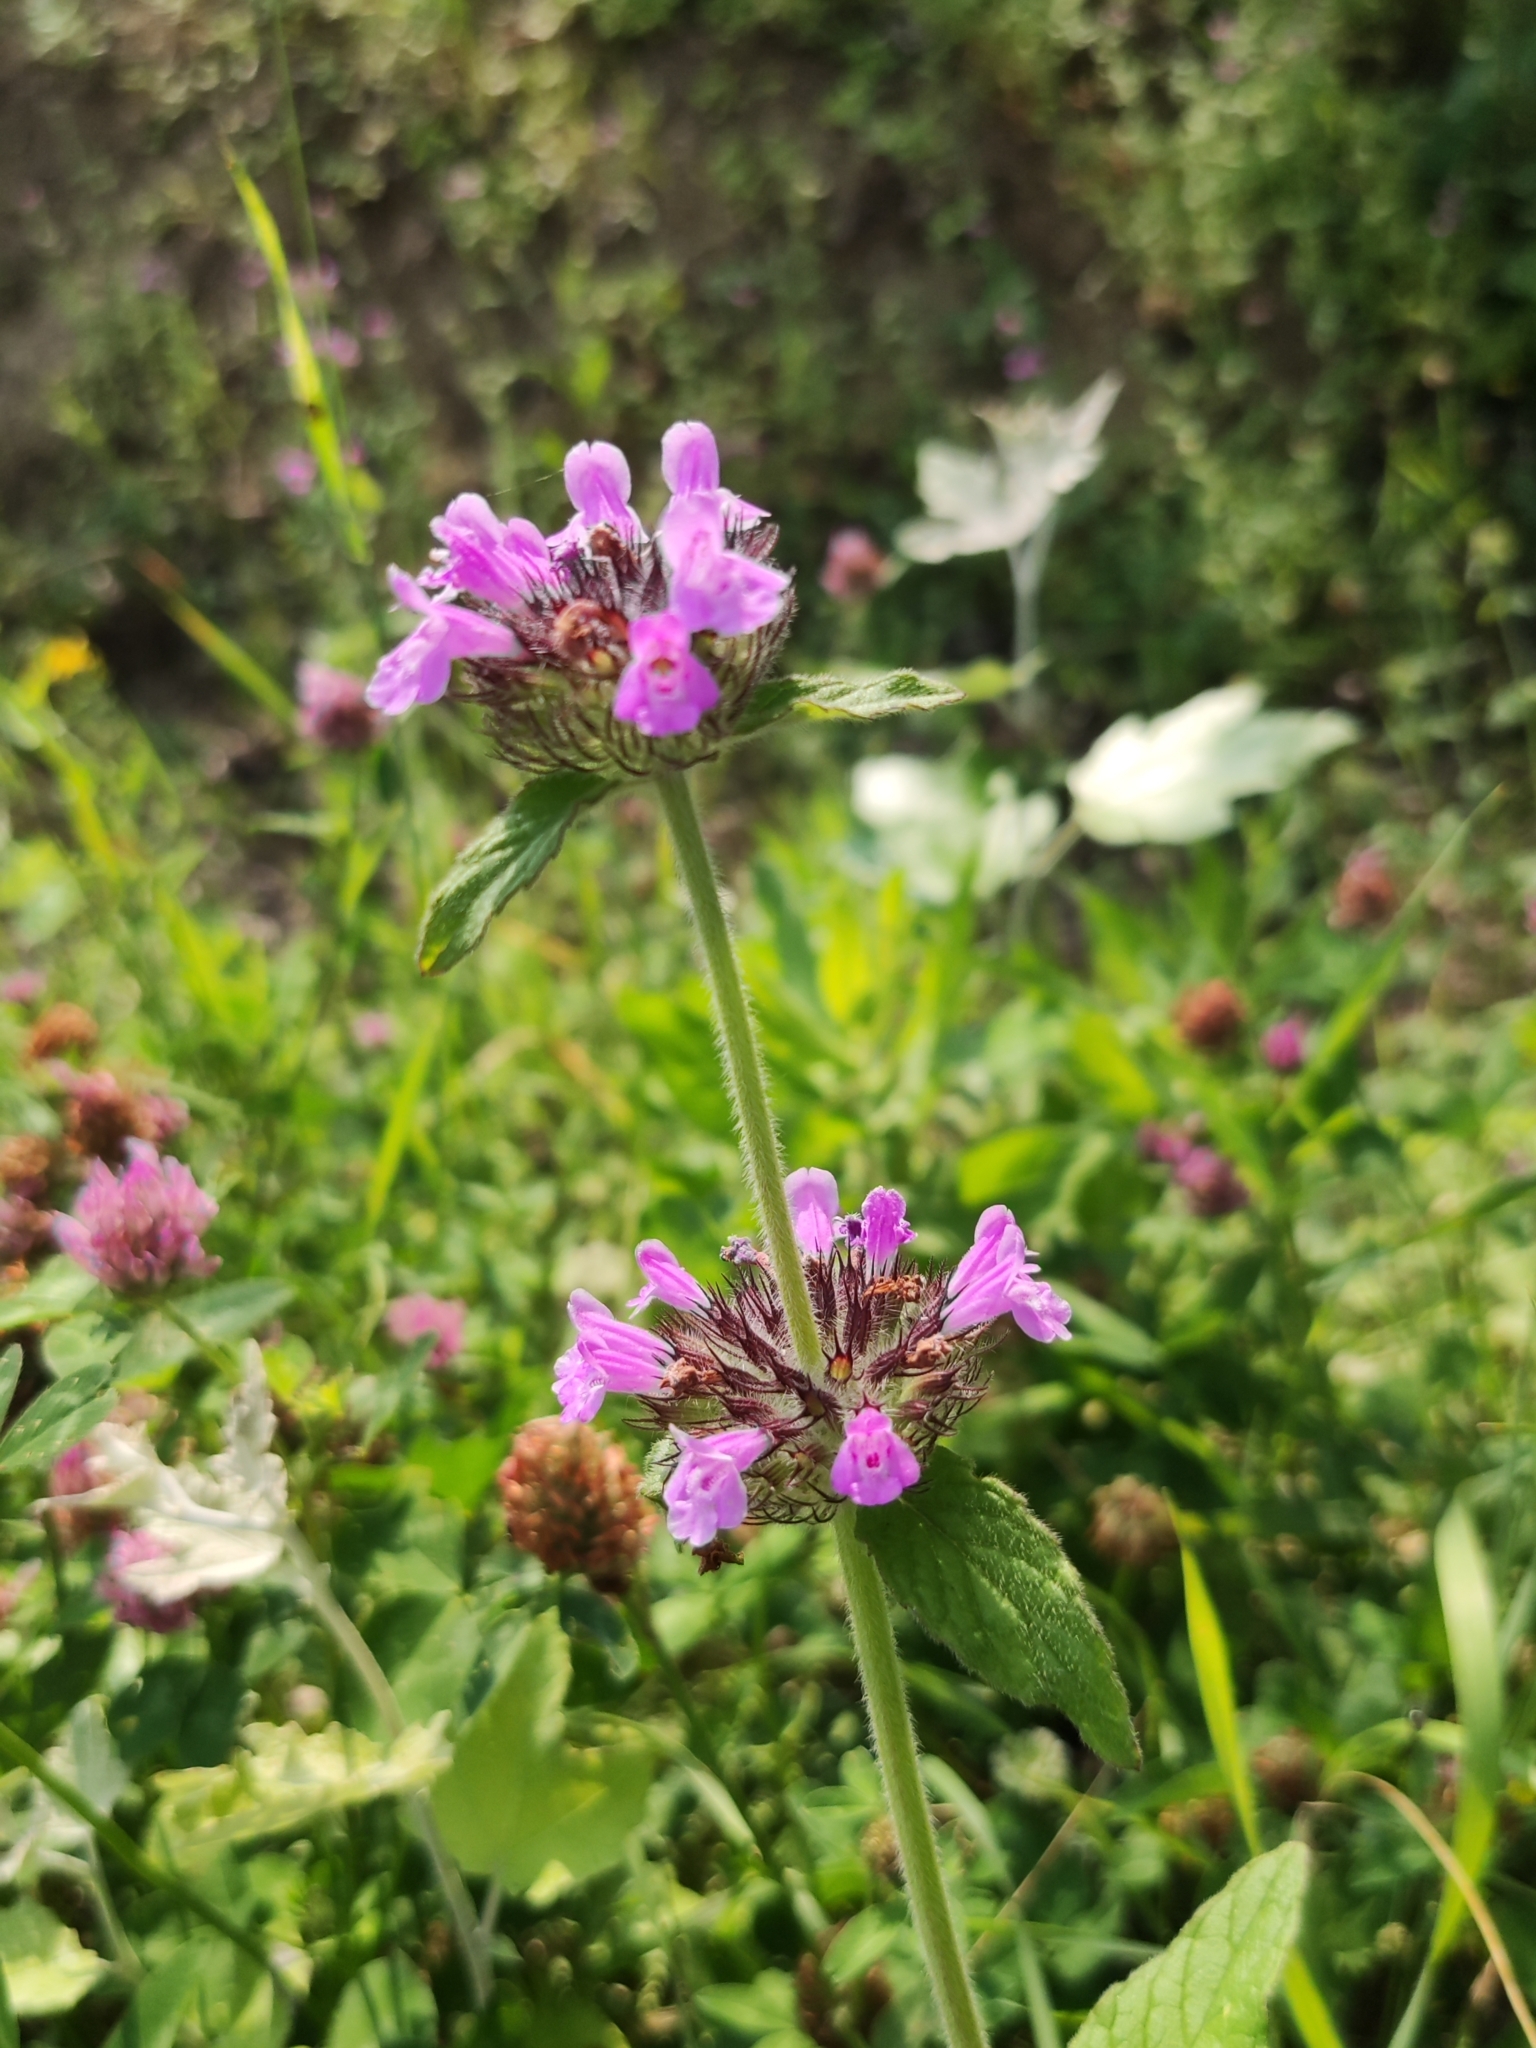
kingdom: Plantae
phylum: Tracheophyta
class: Magnoliopsida
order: Lamiales
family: Lamiaceae
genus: Clinopodium
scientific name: Clinopodium vulgare
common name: Wild basil
